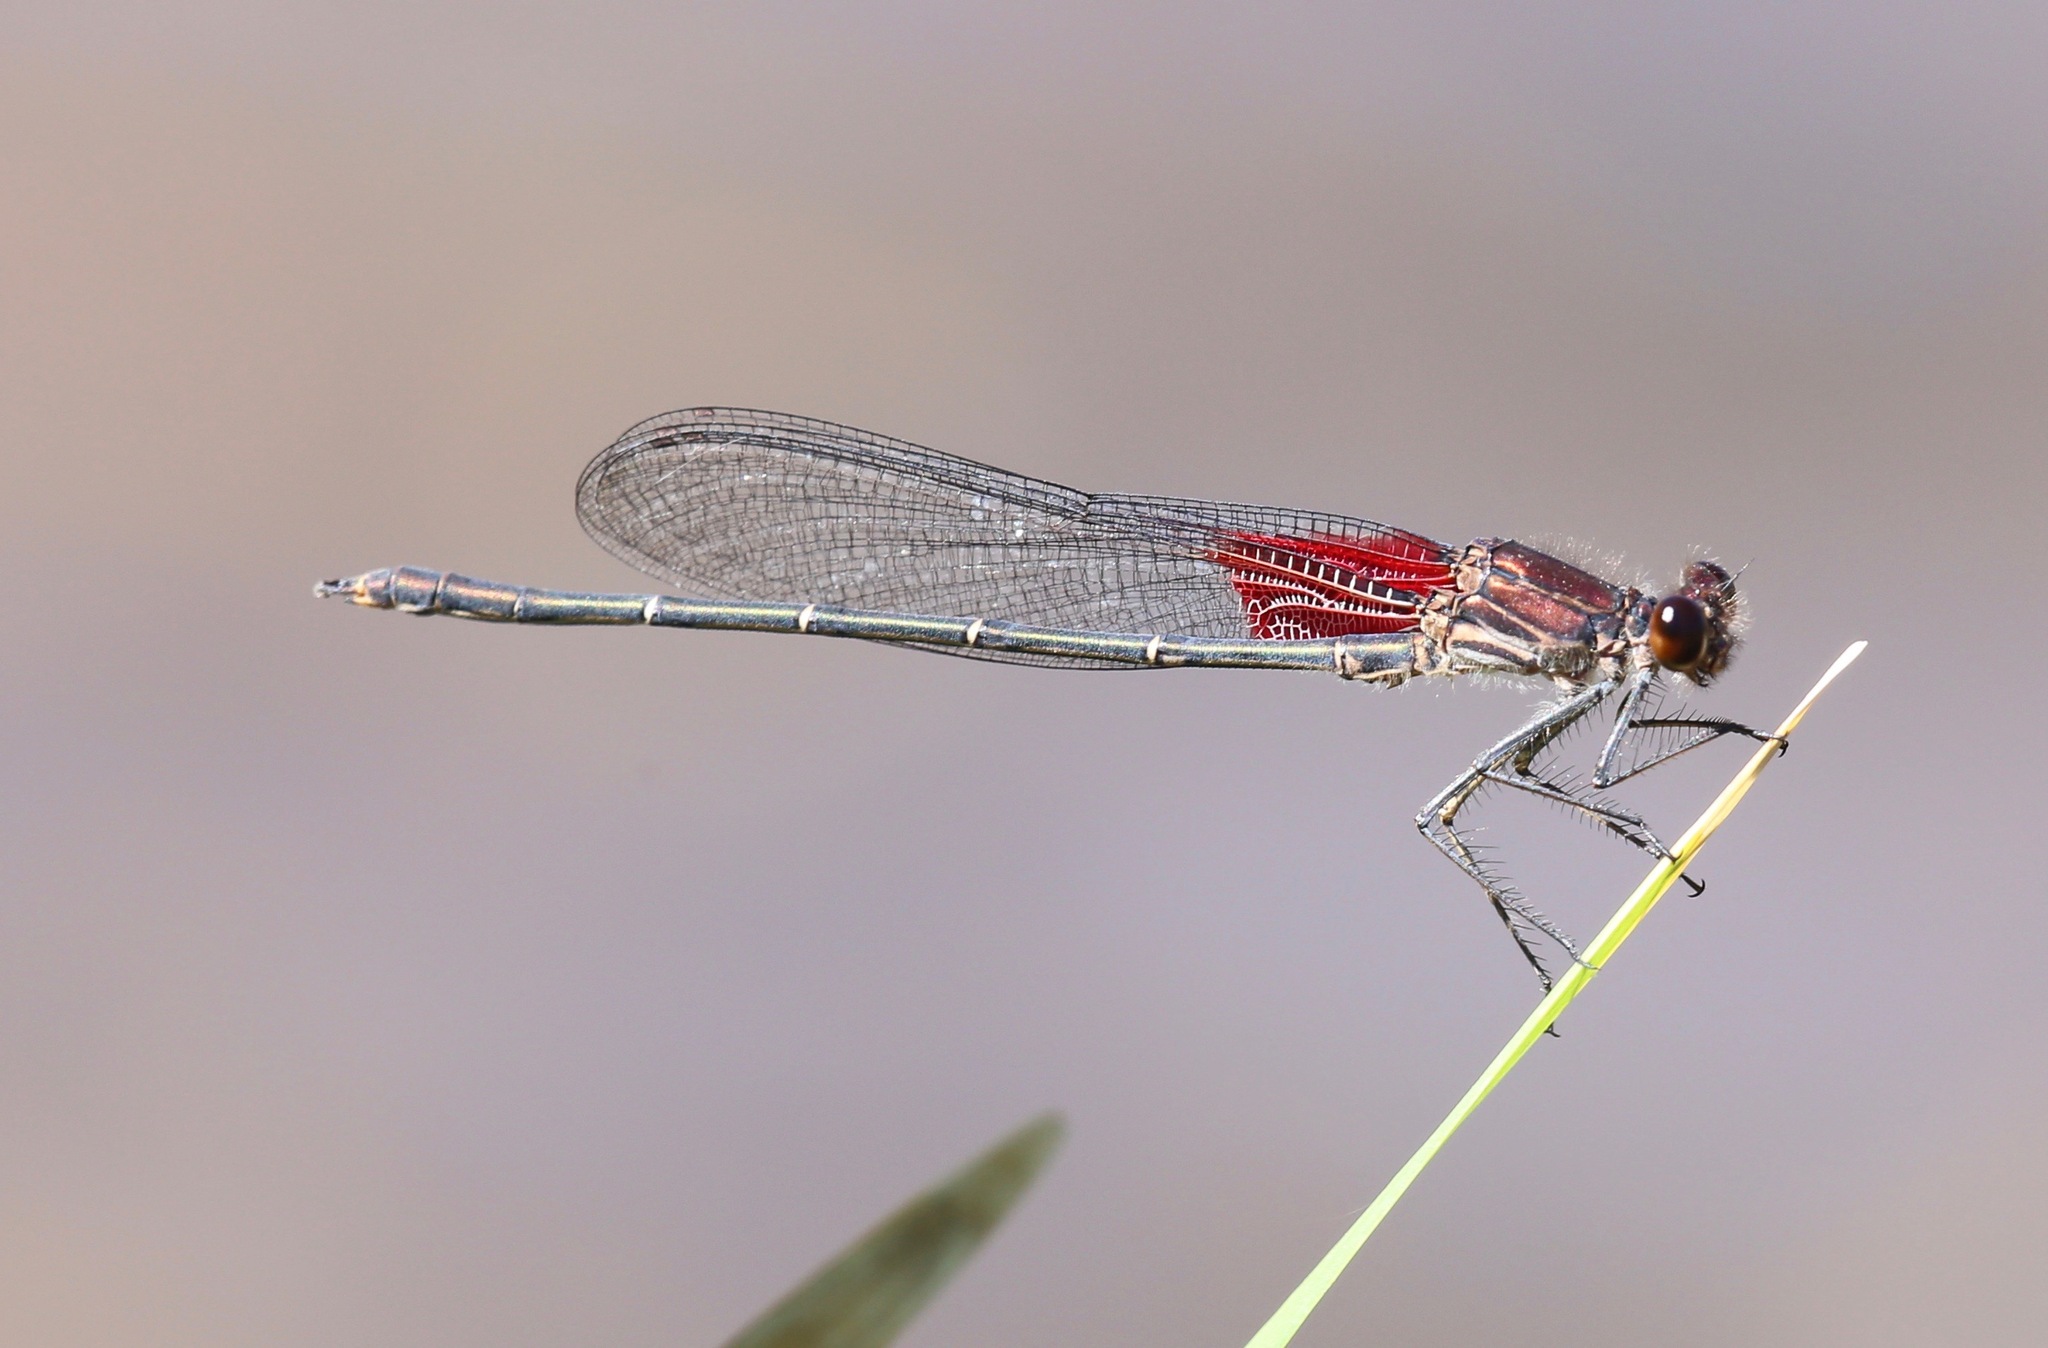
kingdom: Animalia
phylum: Arthropoda
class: Insecta
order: Odonata
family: Calopterygidae
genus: Hetaerina
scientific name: Hetaerina americana
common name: American rubyspot
